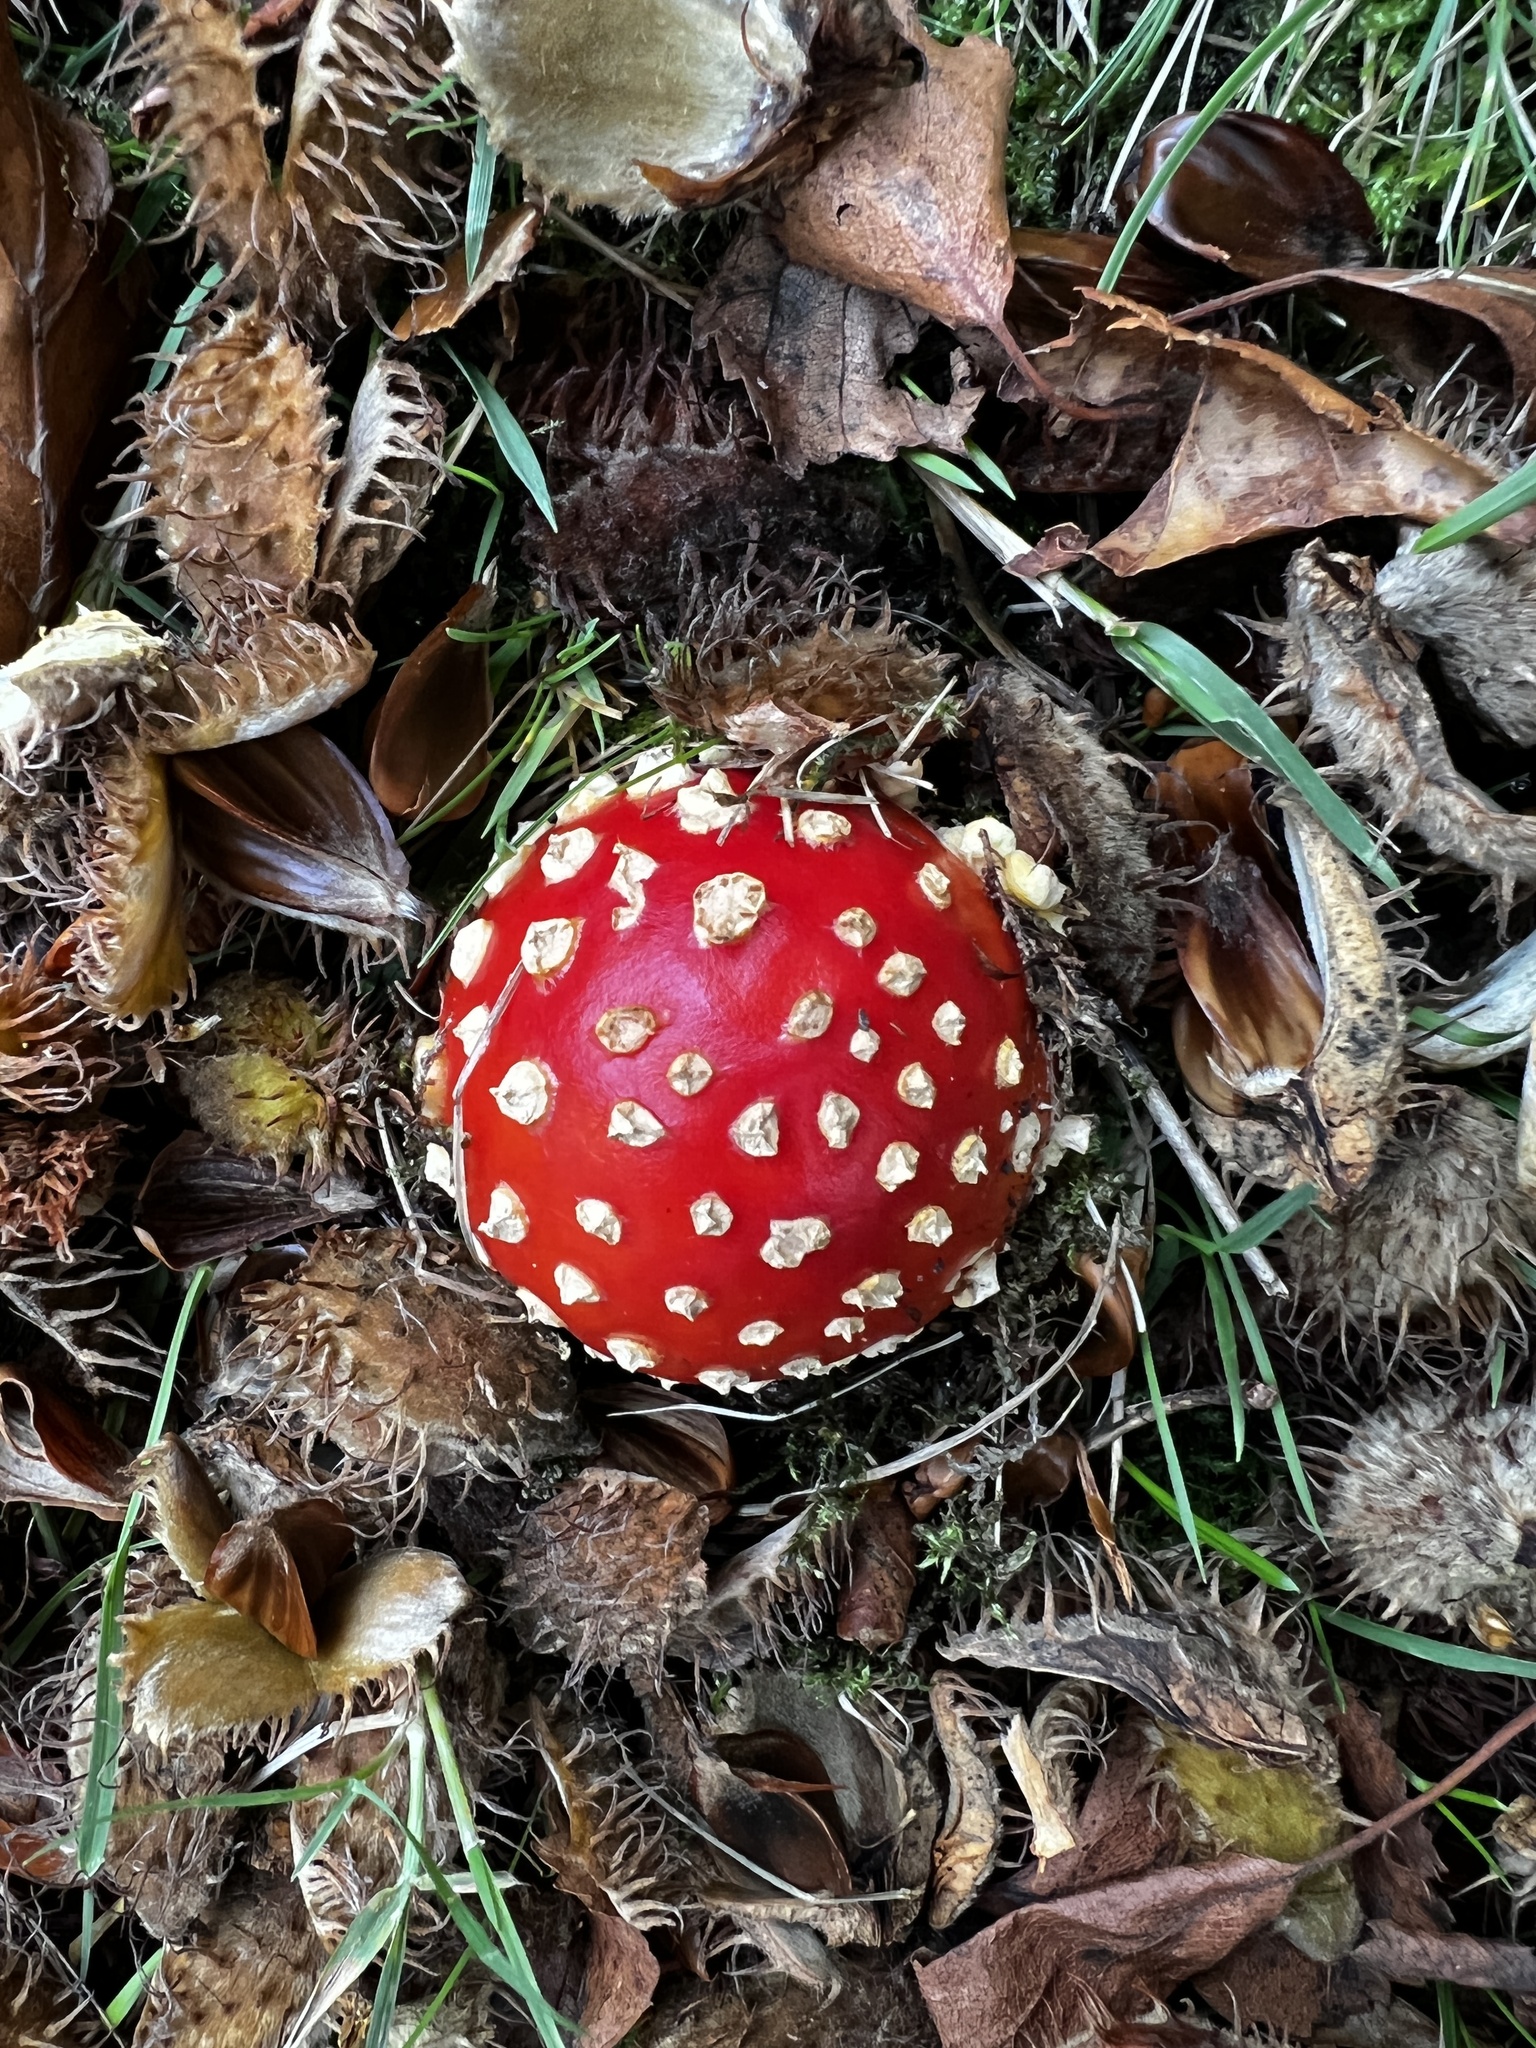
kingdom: Fungi
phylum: Basidiomycota
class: Agaricomycetes
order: Agaricales
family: Amanitaceae
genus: Amanita
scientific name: Amanita muscaria
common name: Fly agaric
